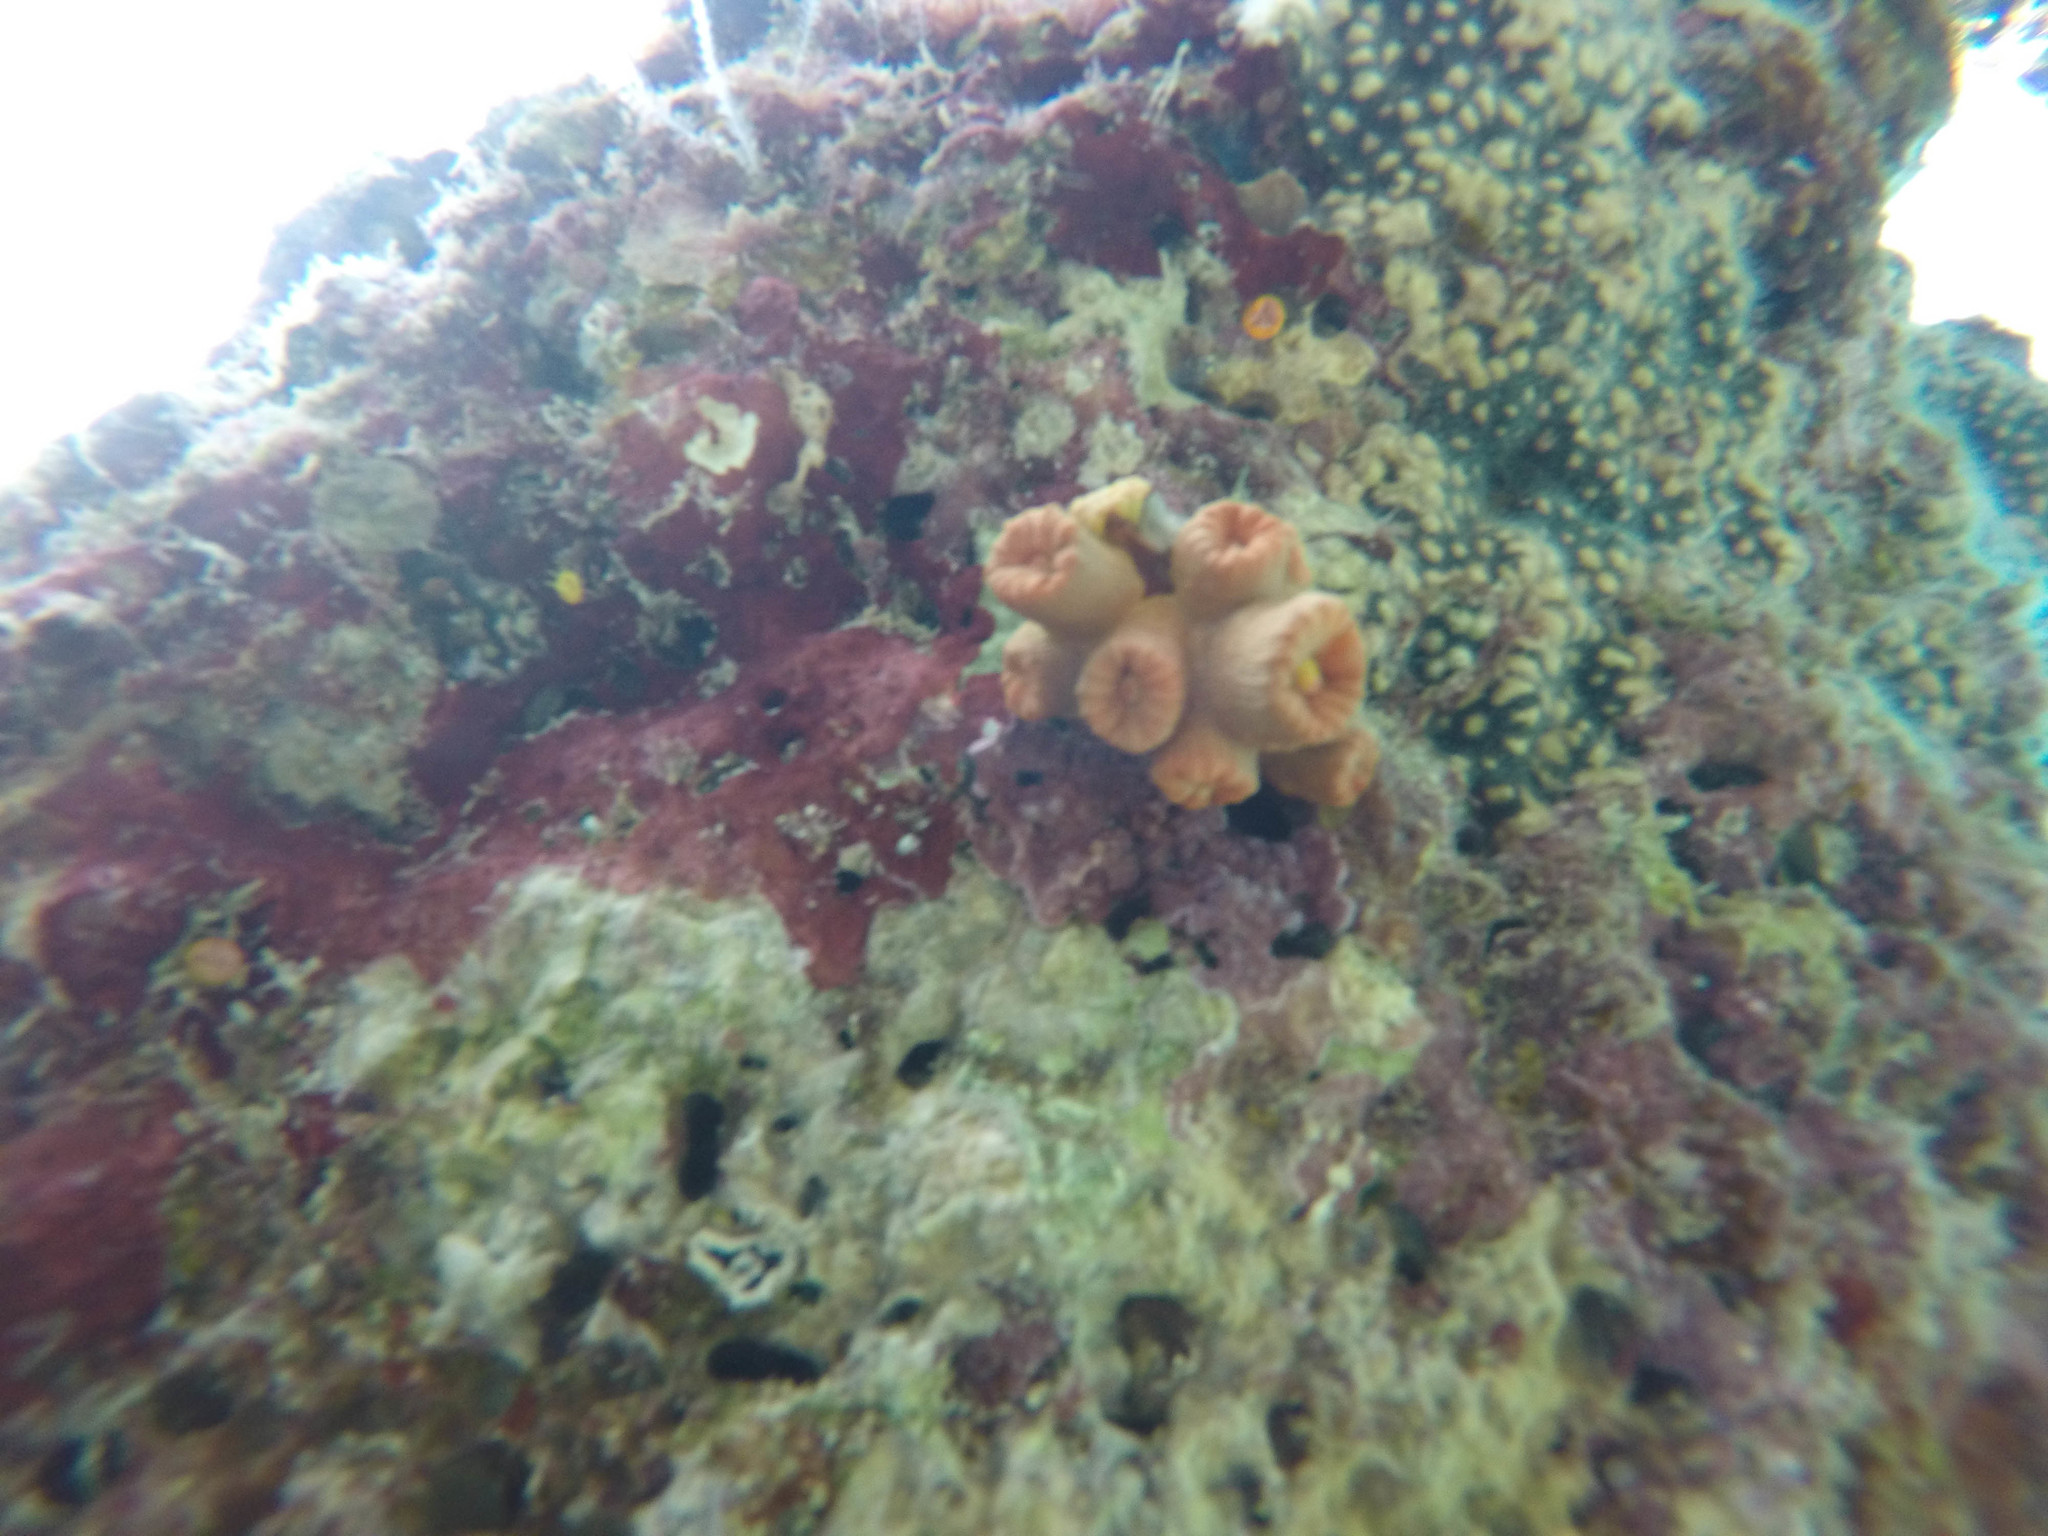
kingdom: Animalia
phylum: Cnidaria
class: Anthozoa
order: Scleractinia
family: Dendrophylliidae
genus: Tubastraea
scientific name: Tubastraea
